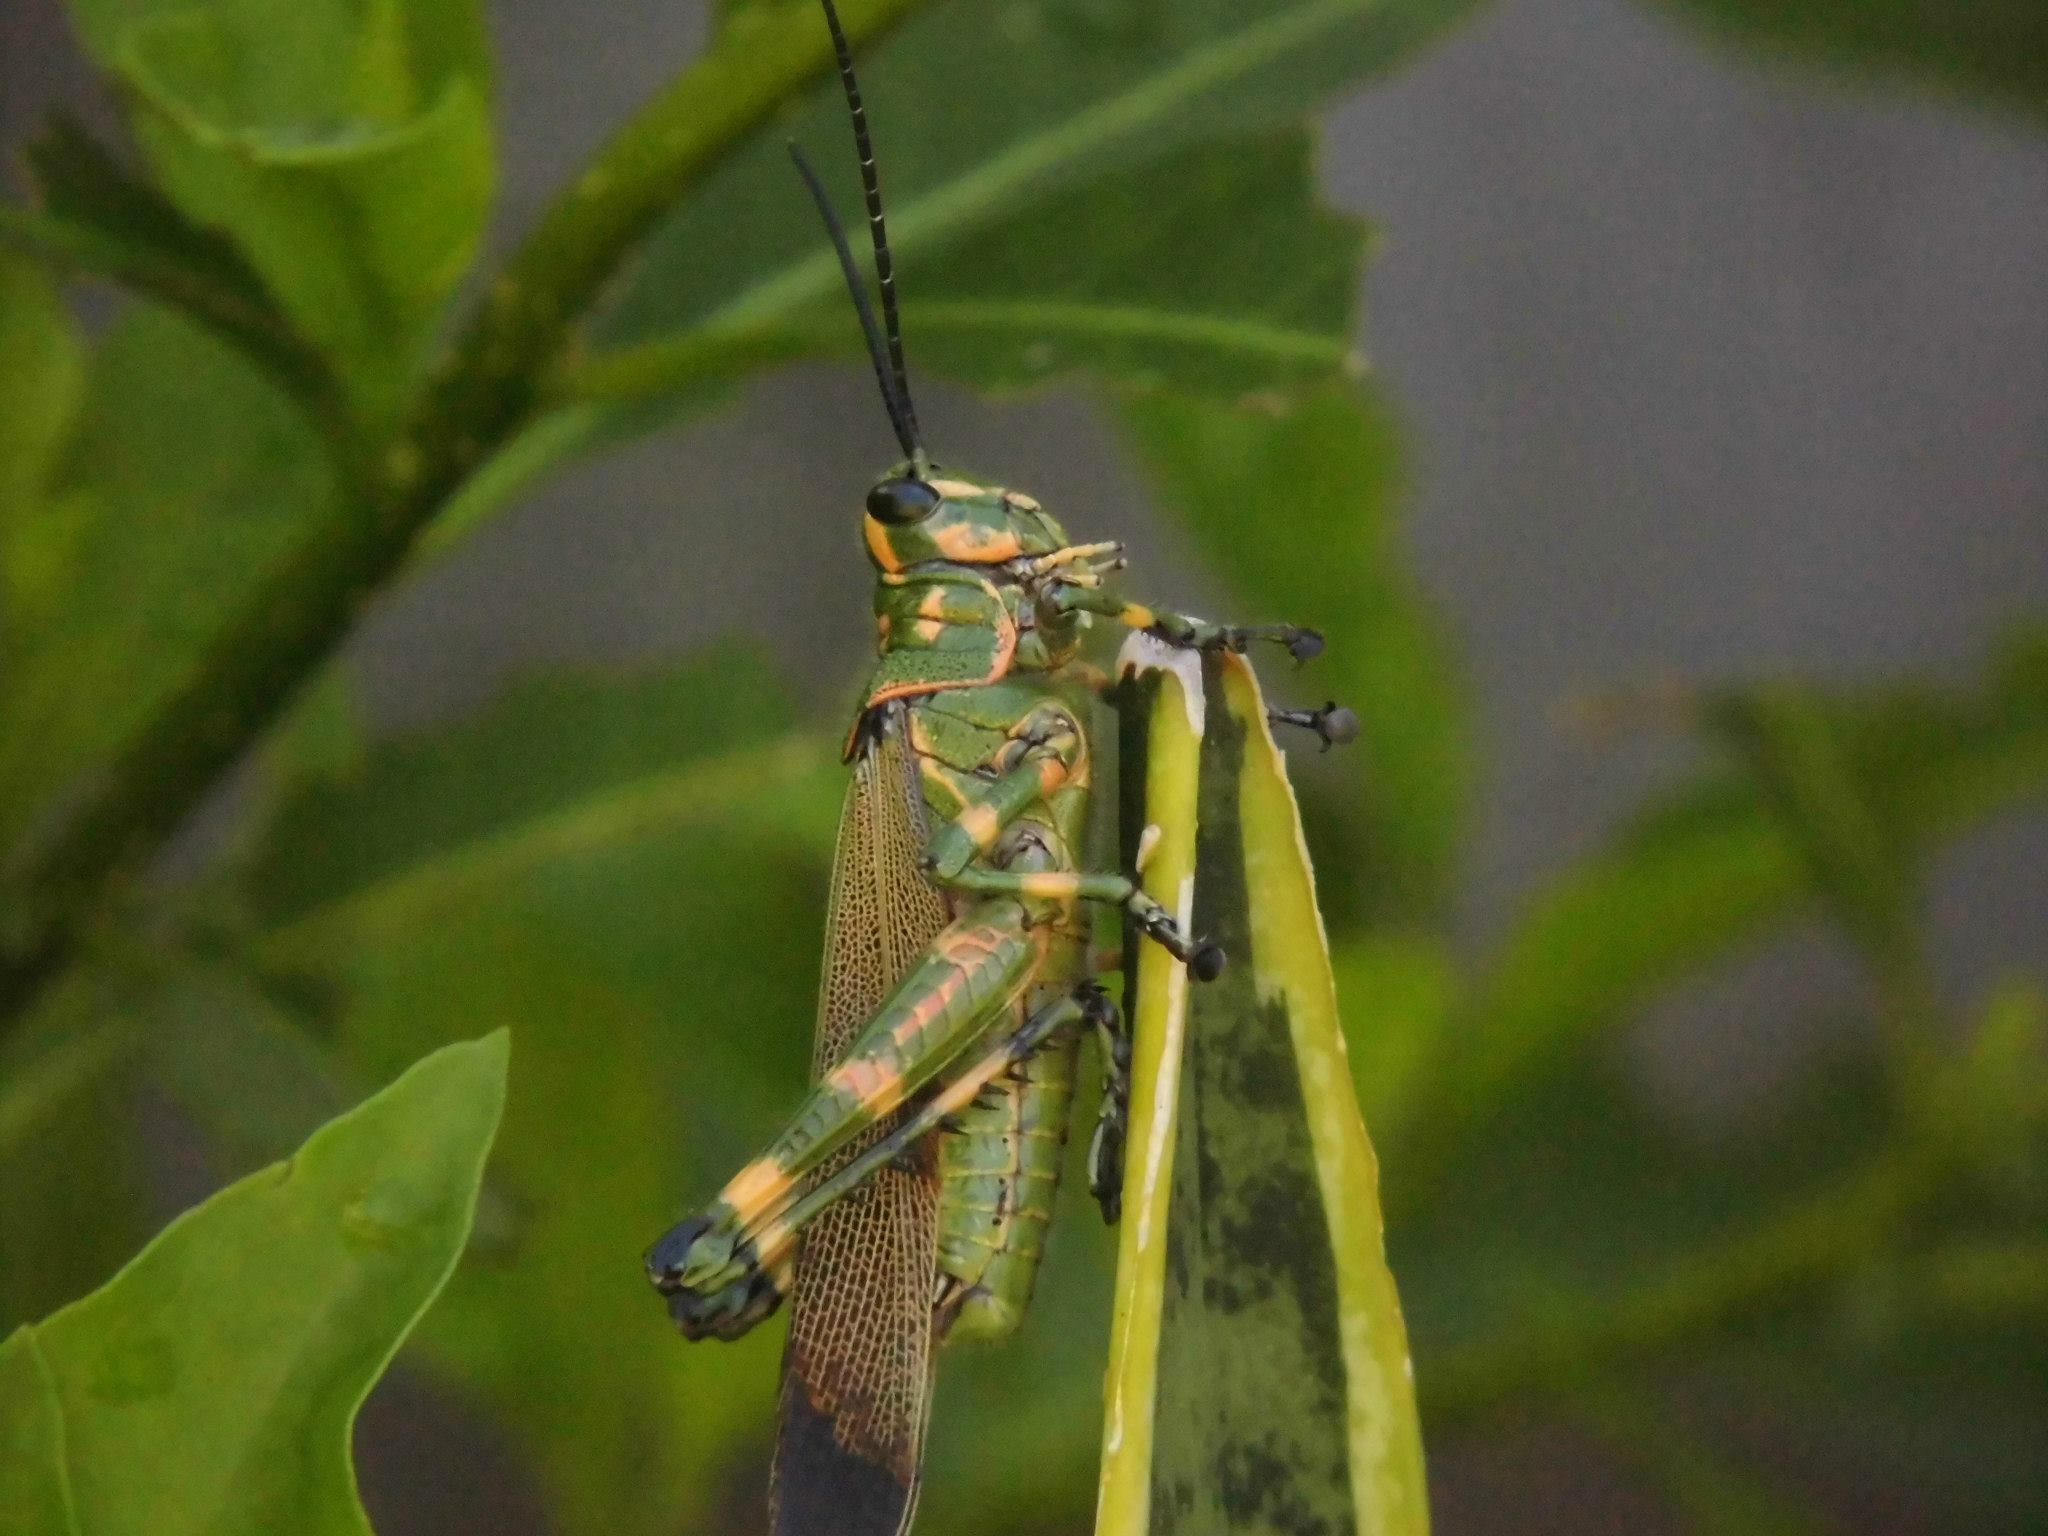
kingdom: Animalia
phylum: Arthropoda
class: Insecta
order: Orthoptera
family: Romaleidae
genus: Chromacris
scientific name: Chromacris speciosa
